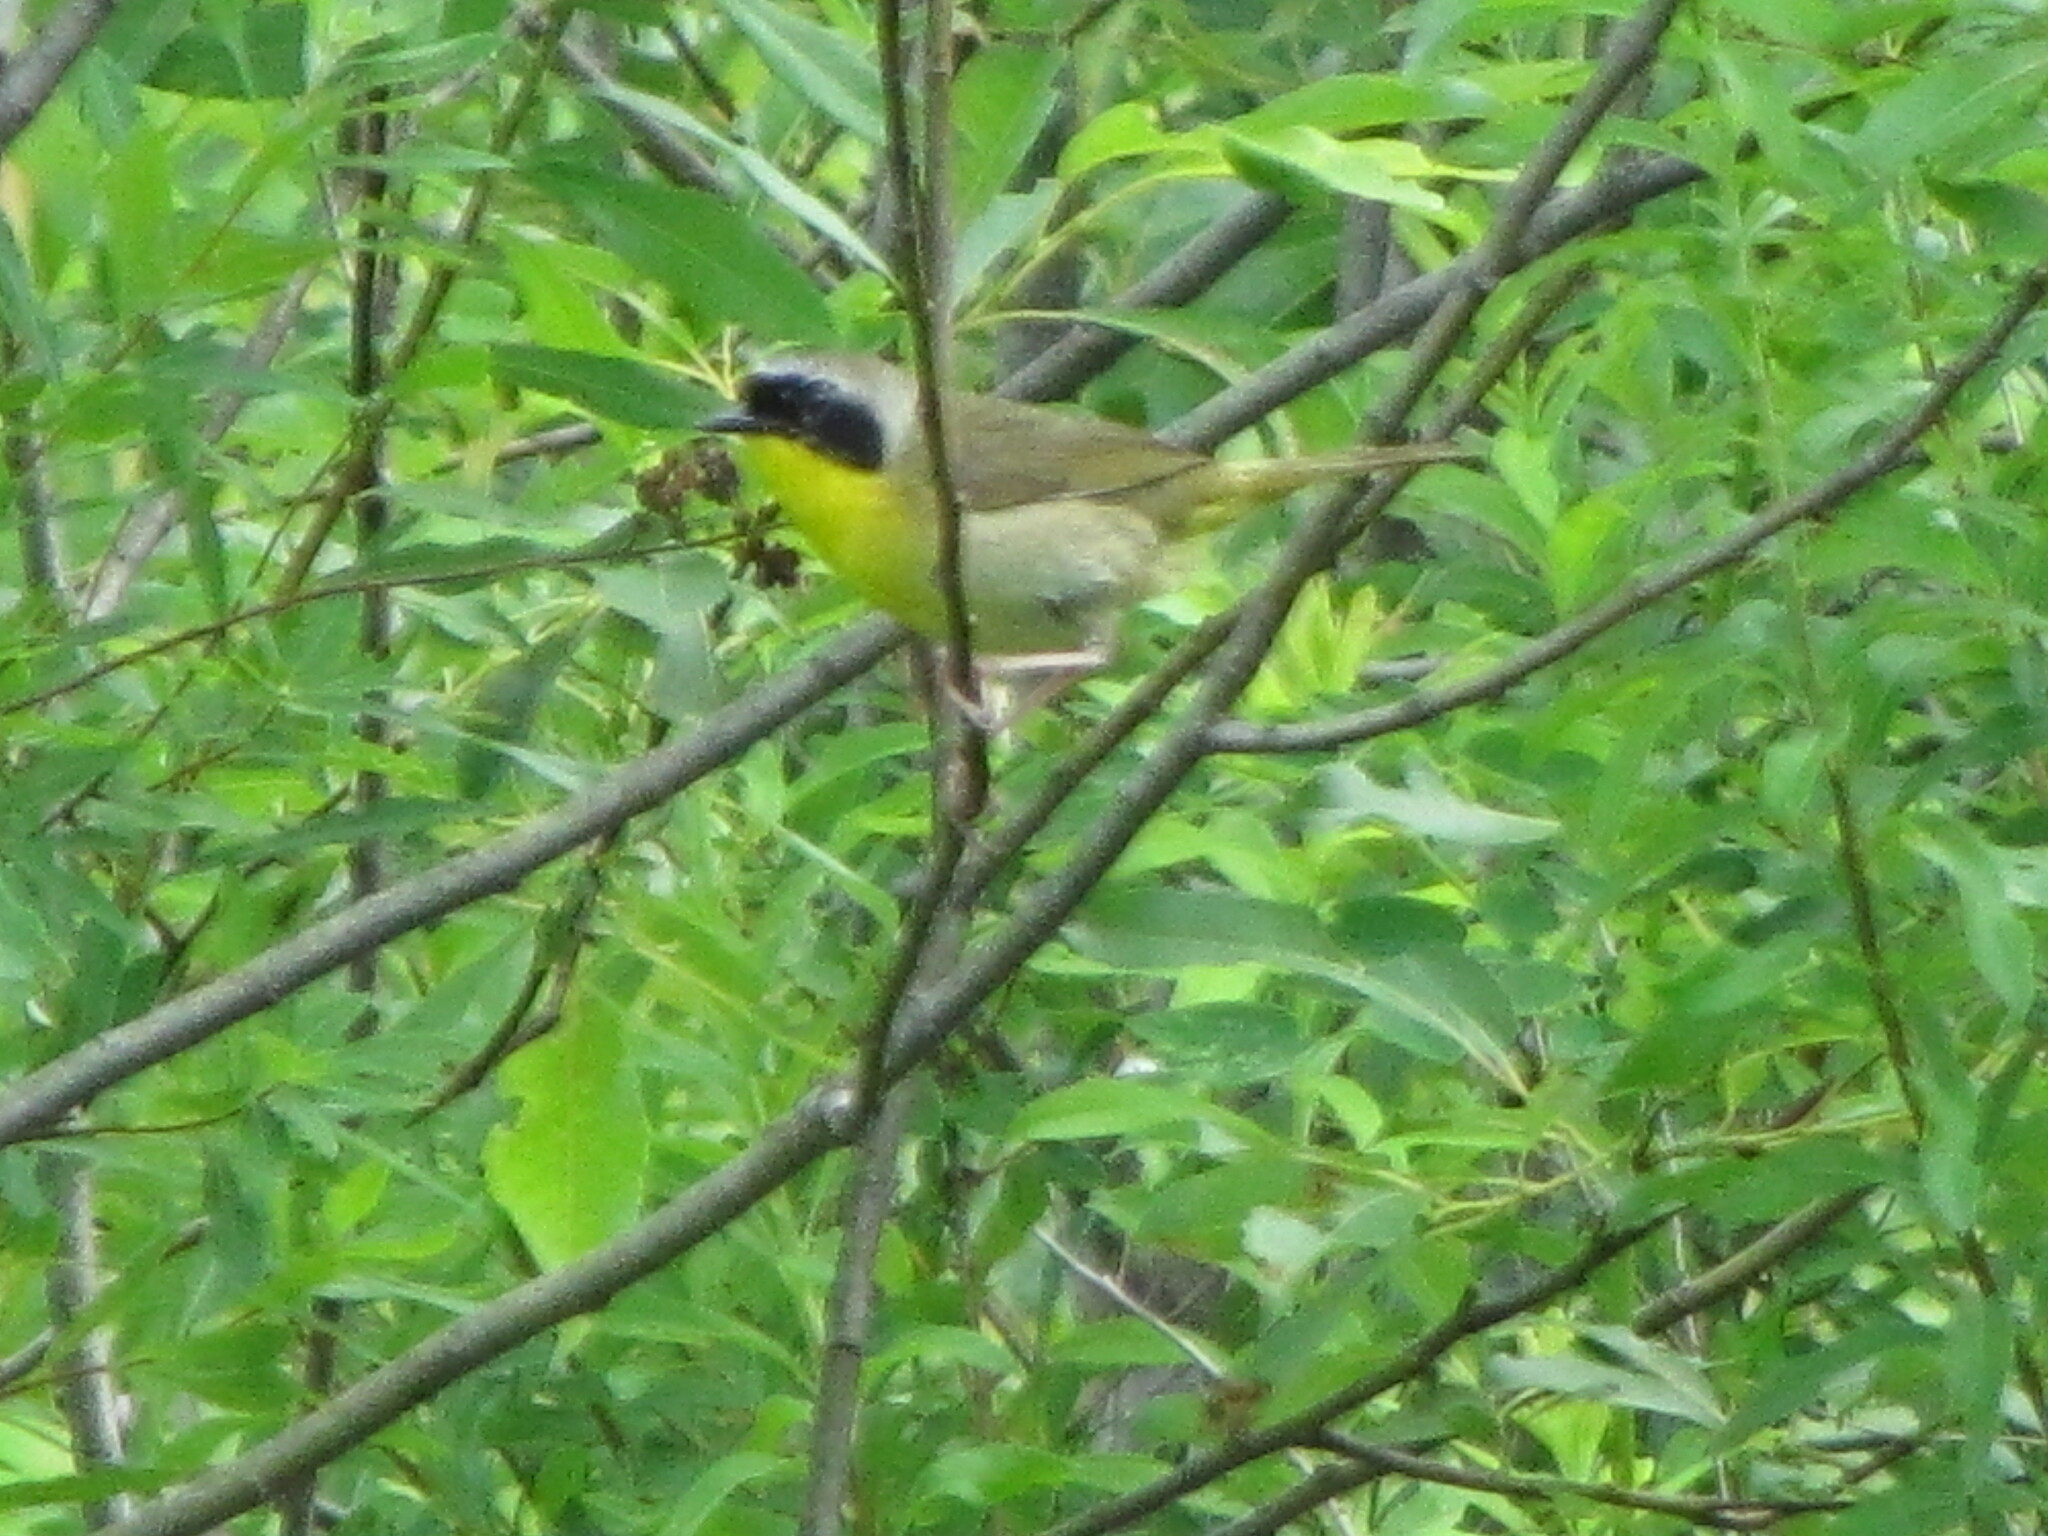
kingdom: Animalia
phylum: Chordata
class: Aves
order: Passeriformes
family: Parulidae
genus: Geothlypis
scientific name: Geothlypis trichas
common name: Common yellowthroat
